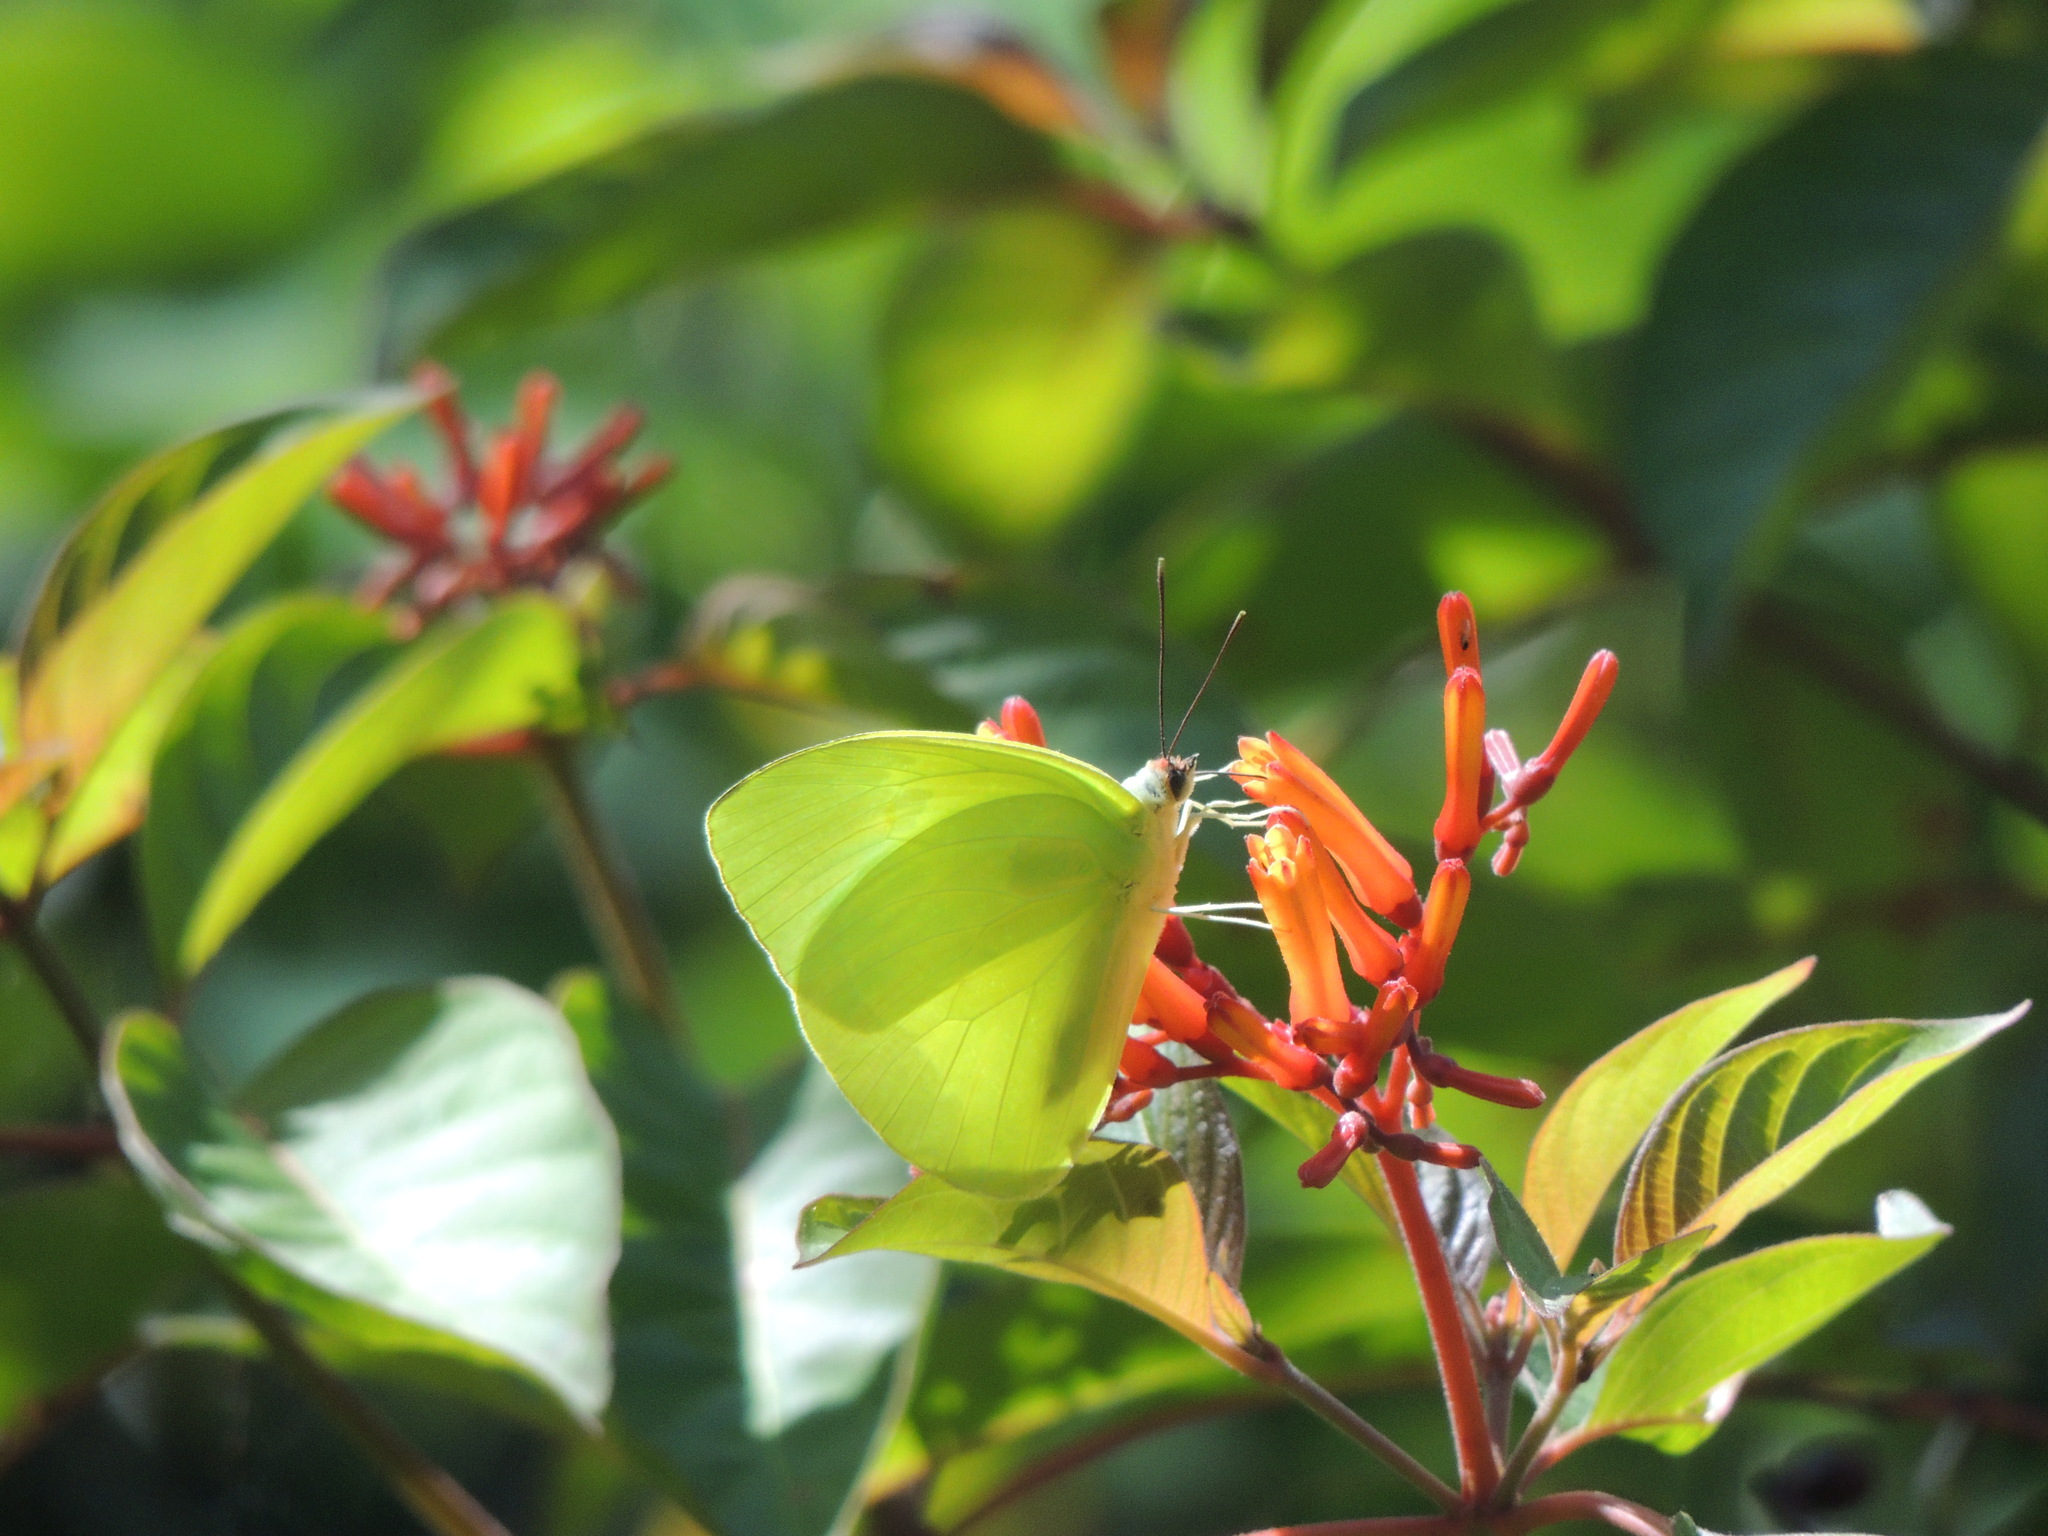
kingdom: Animalia
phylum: Arthropoda
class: Insecta
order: Lepidoptera
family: Pieridae
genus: Aphrissa
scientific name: Aphrissa statira
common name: Statira sulphur
